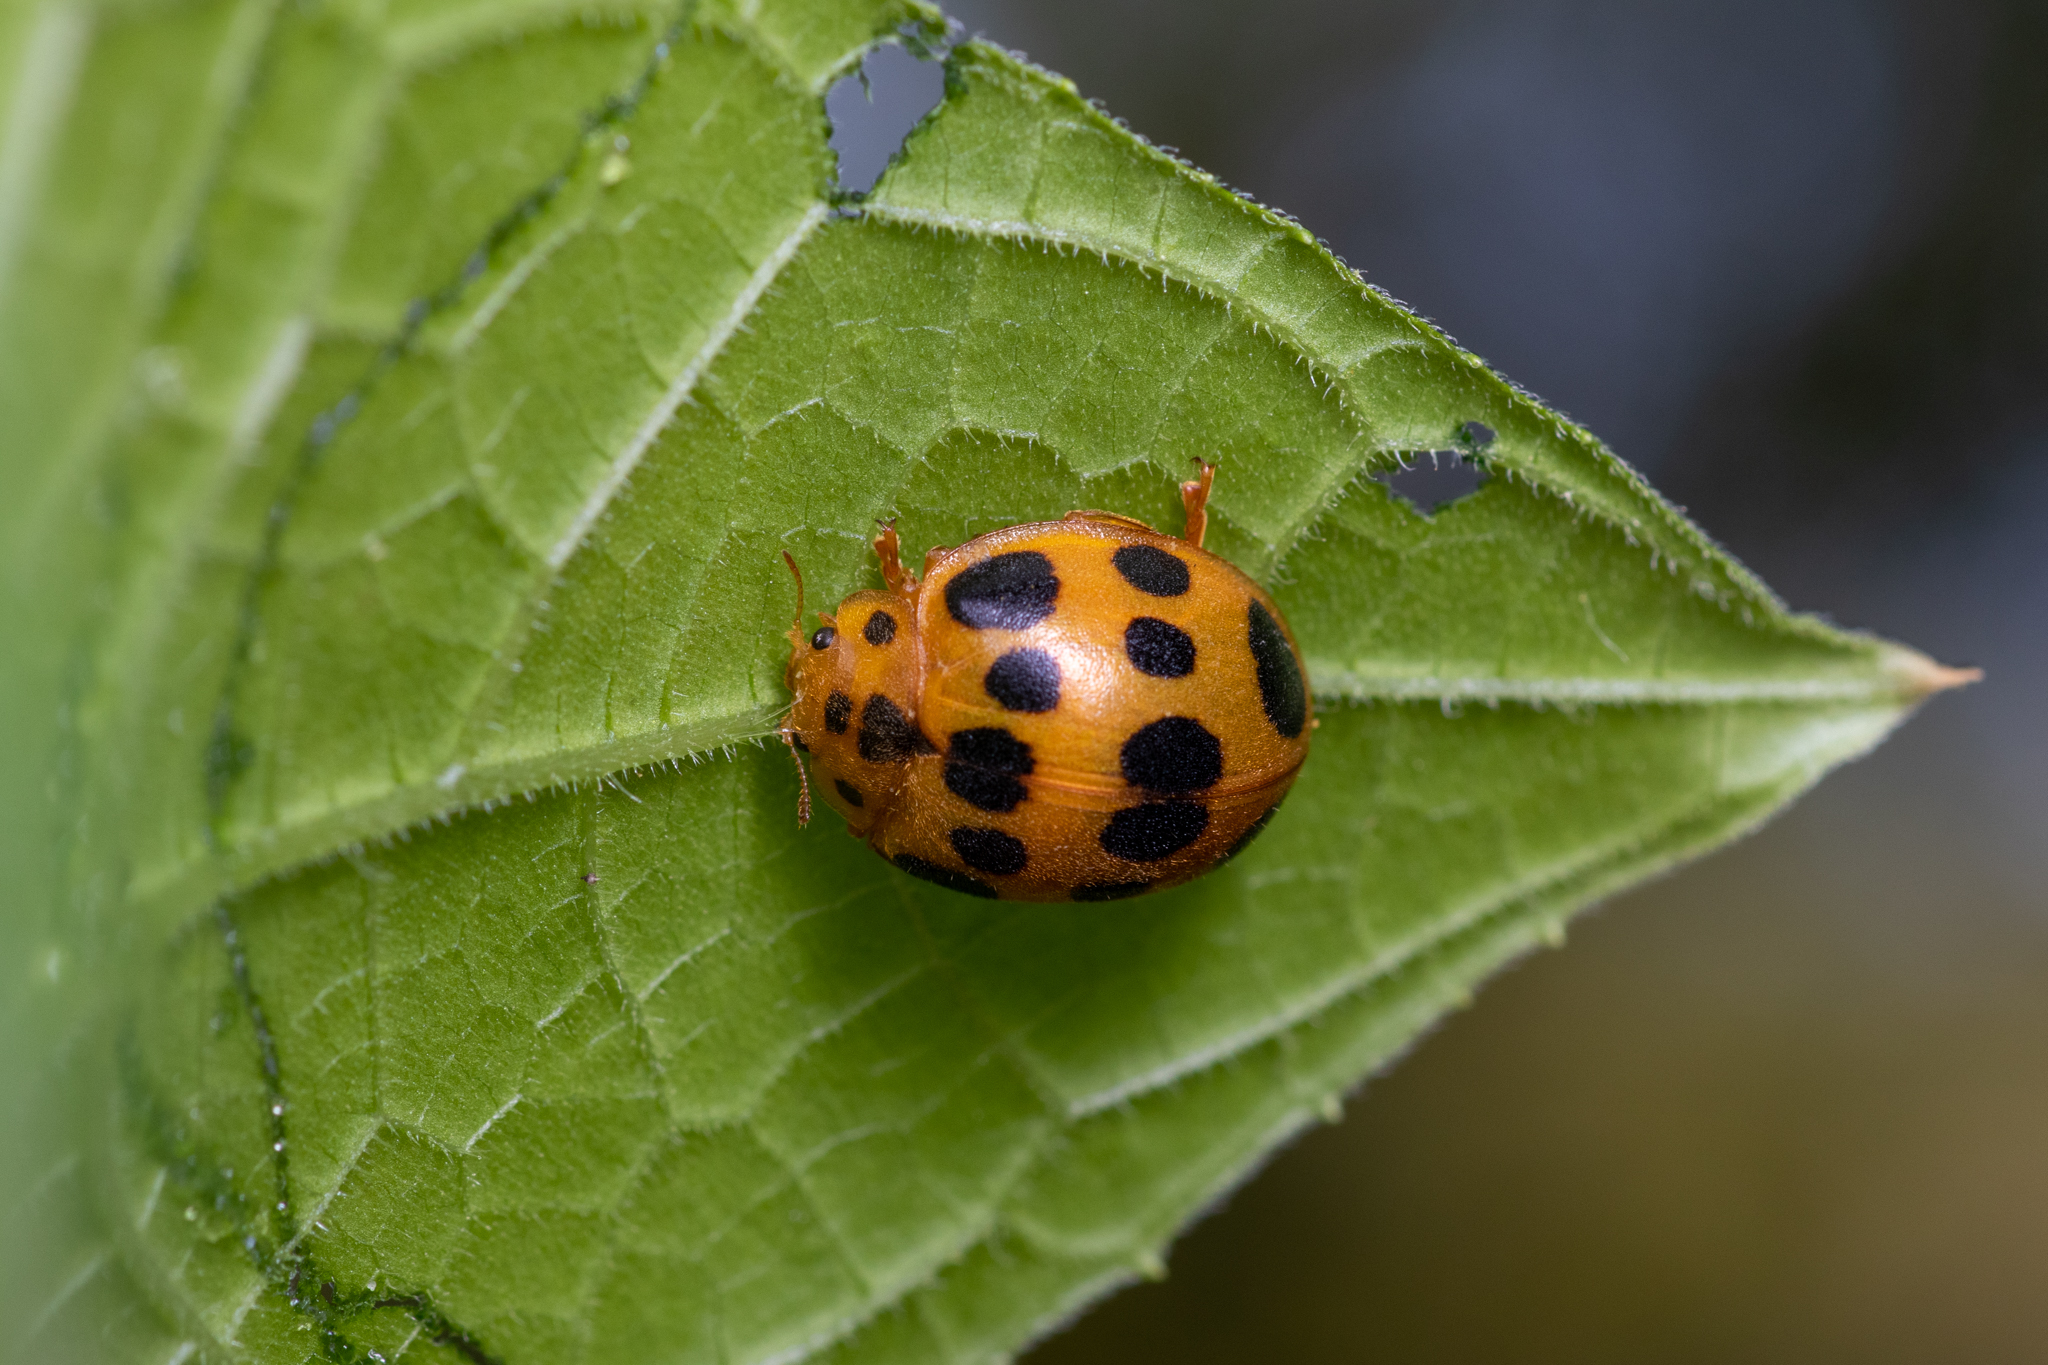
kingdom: Animalia
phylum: Arthropoda
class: Insecta
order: Coleoptera
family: Coccinellidae
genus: Epilachna
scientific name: Epilachna borealis
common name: Squash beetle
